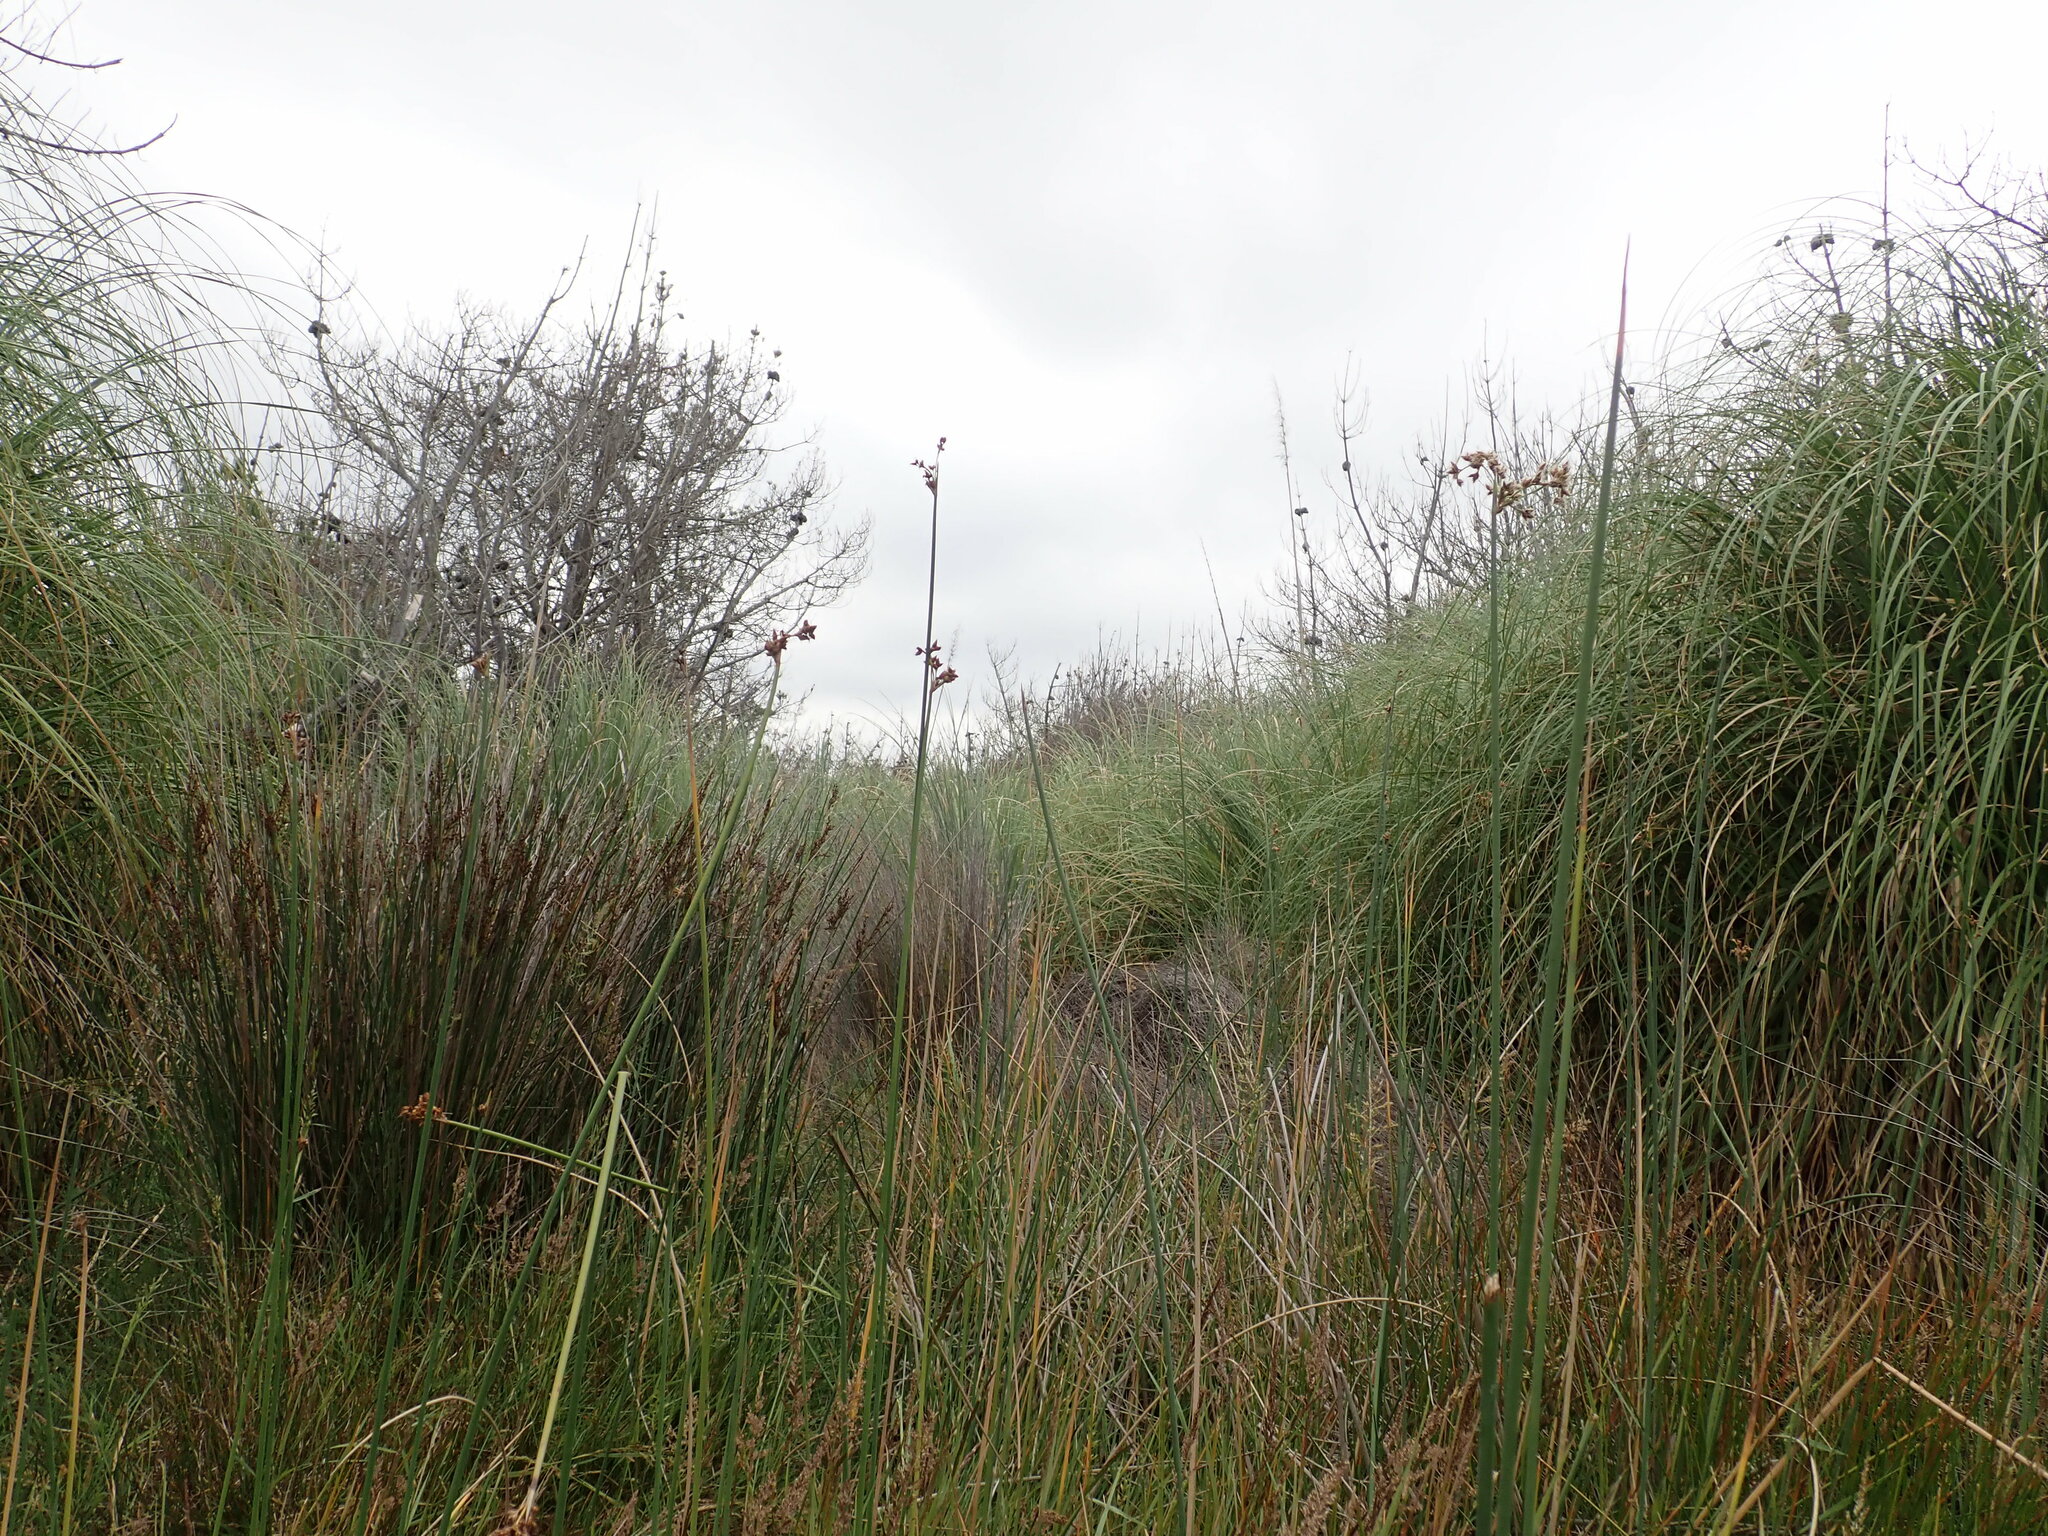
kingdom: Plantae
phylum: Tracheophyta
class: Liliopsida
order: Poales
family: Cyperaceae
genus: Schoenoplectus
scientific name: Schoenoplectus tabernaemontani
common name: Grey club-rush
